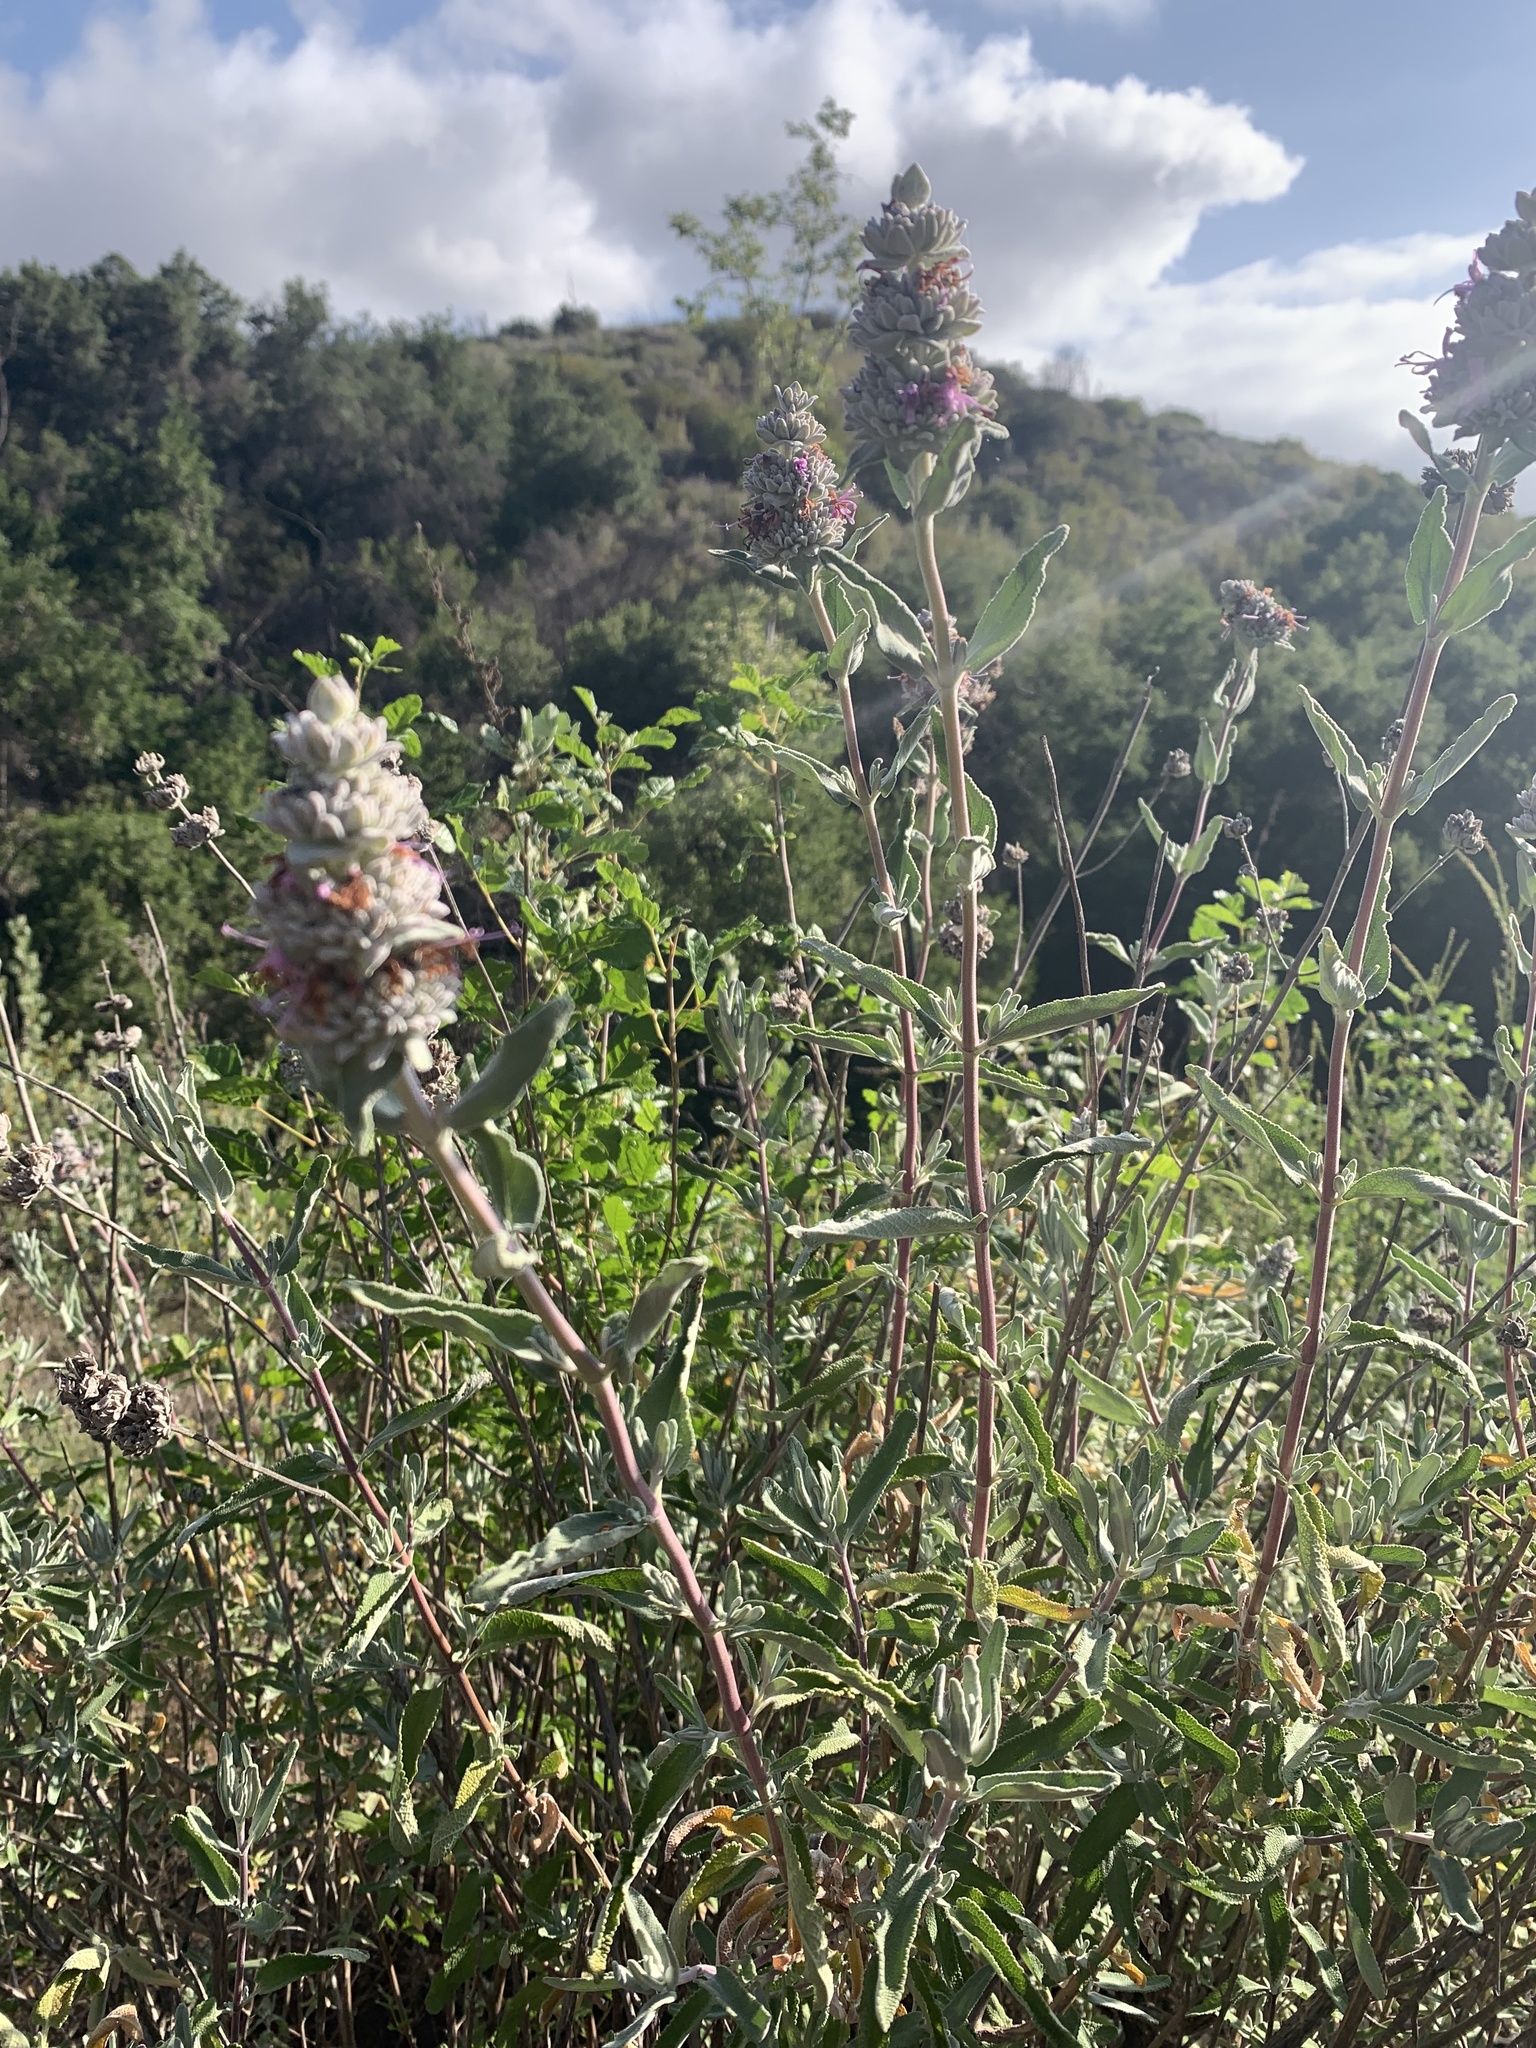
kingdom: Plantae
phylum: Tracheophyta
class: Magnoliopsida
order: Lamiales
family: Lamiaceae
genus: Salvia
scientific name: Salvia leucophylla
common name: Purple sage
